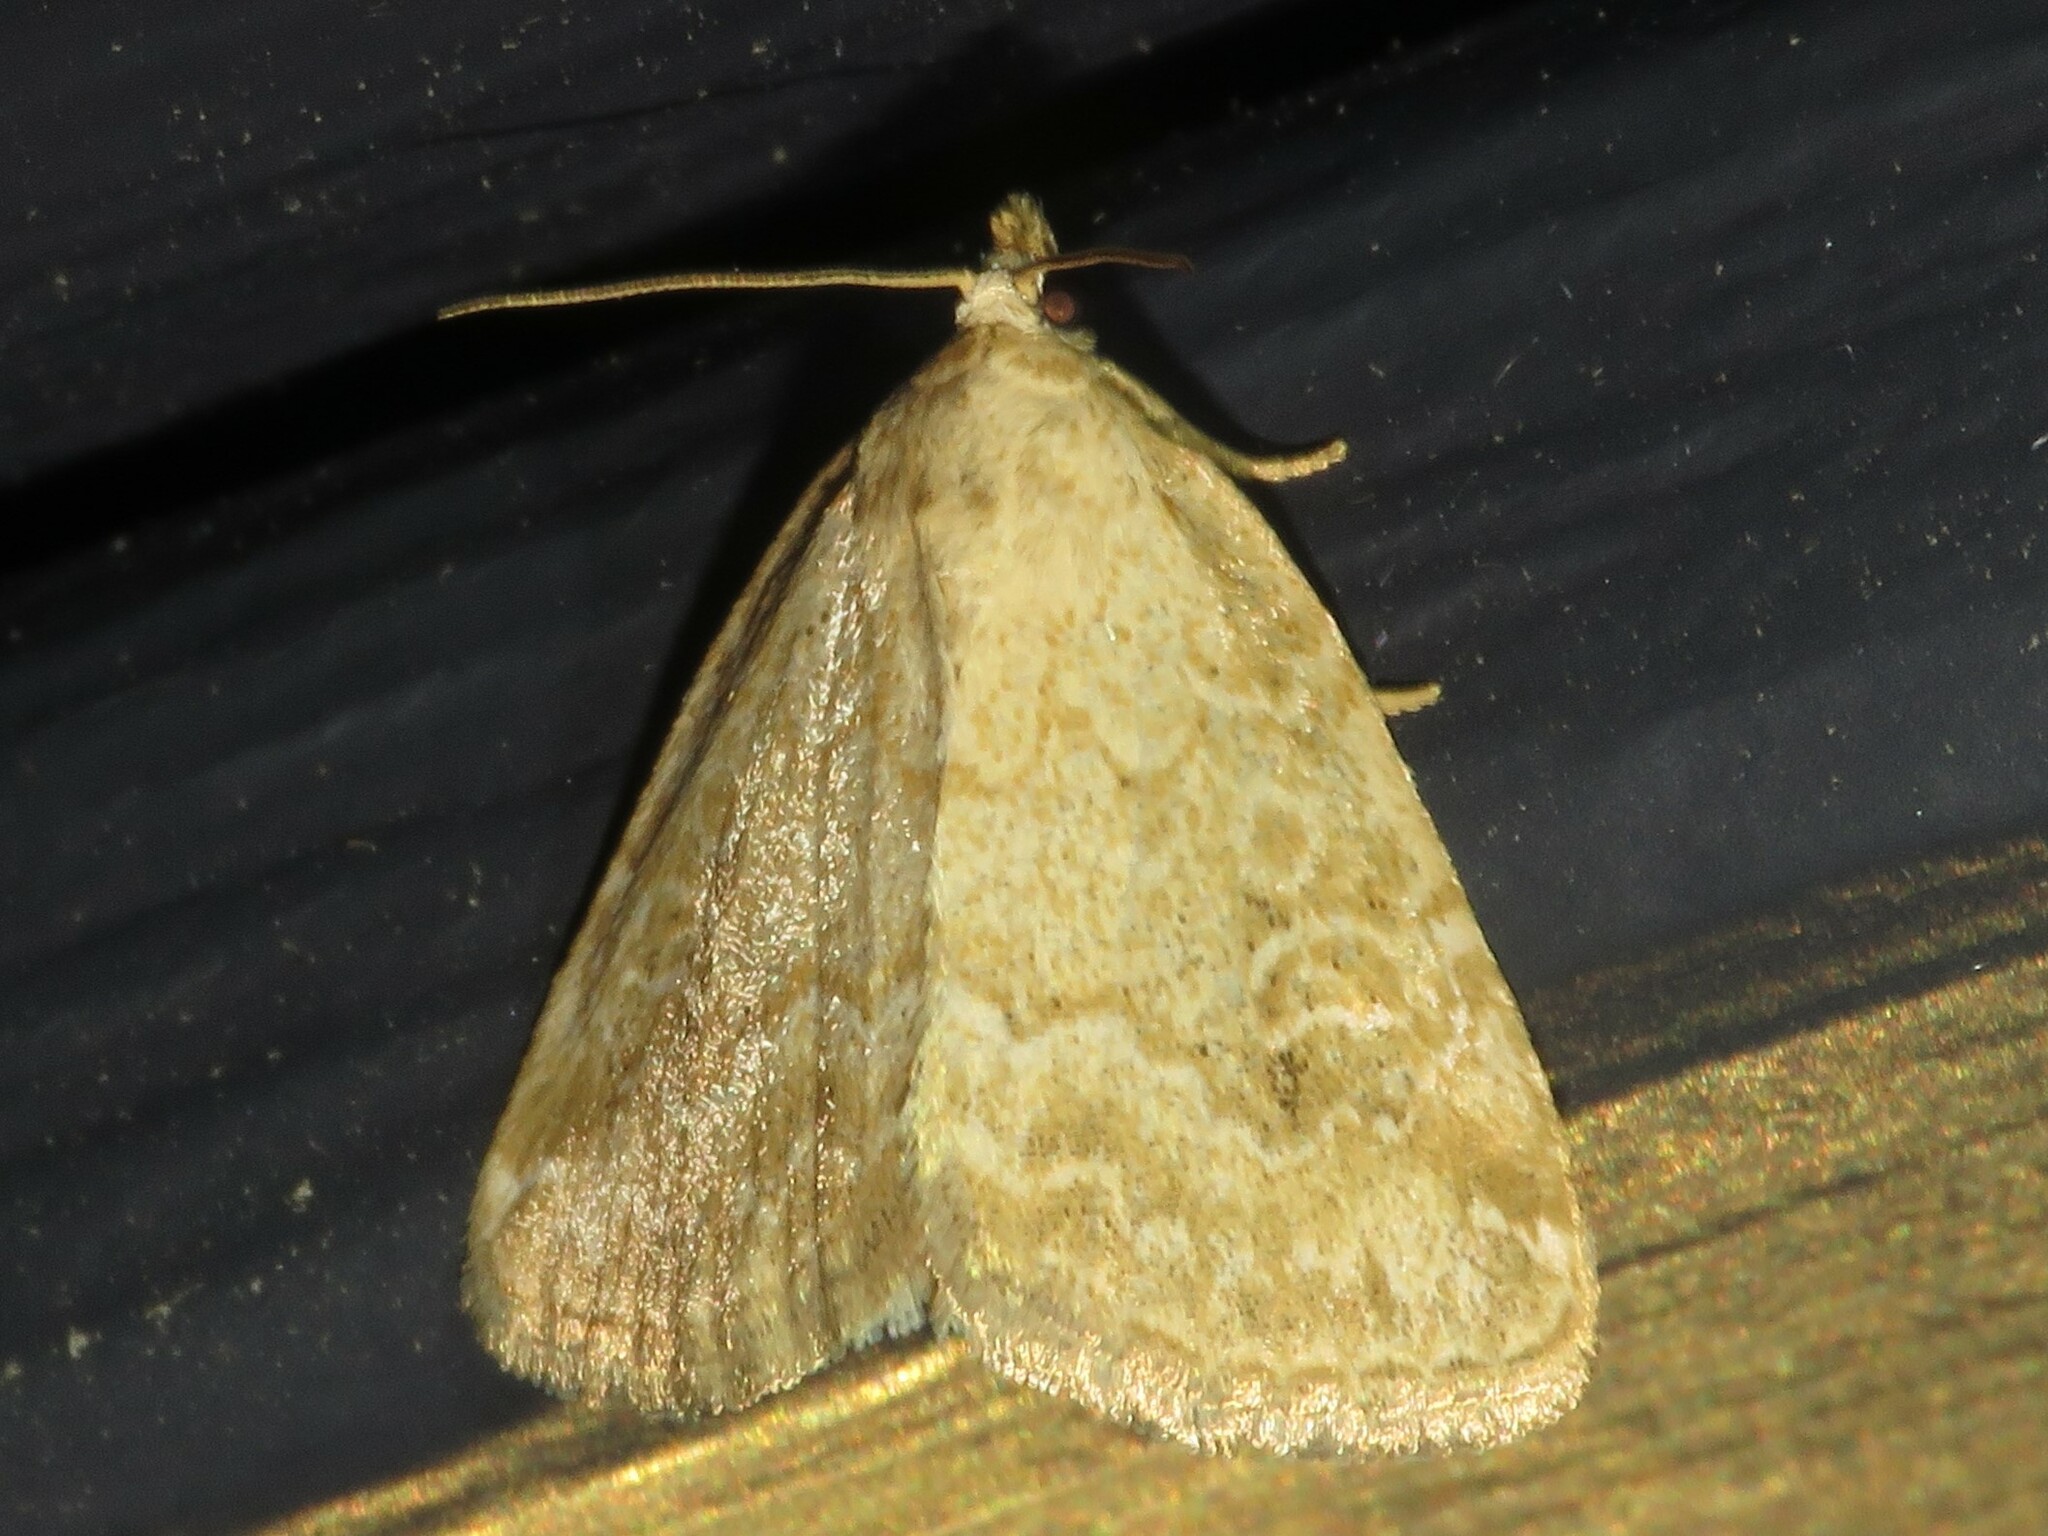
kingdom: Animalia
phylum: Arthropoda
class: Insecta
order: Lepidoptera
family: Noctuidae
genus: Protodeltote
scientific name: Protodeltote albidula
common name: Pale glyph
